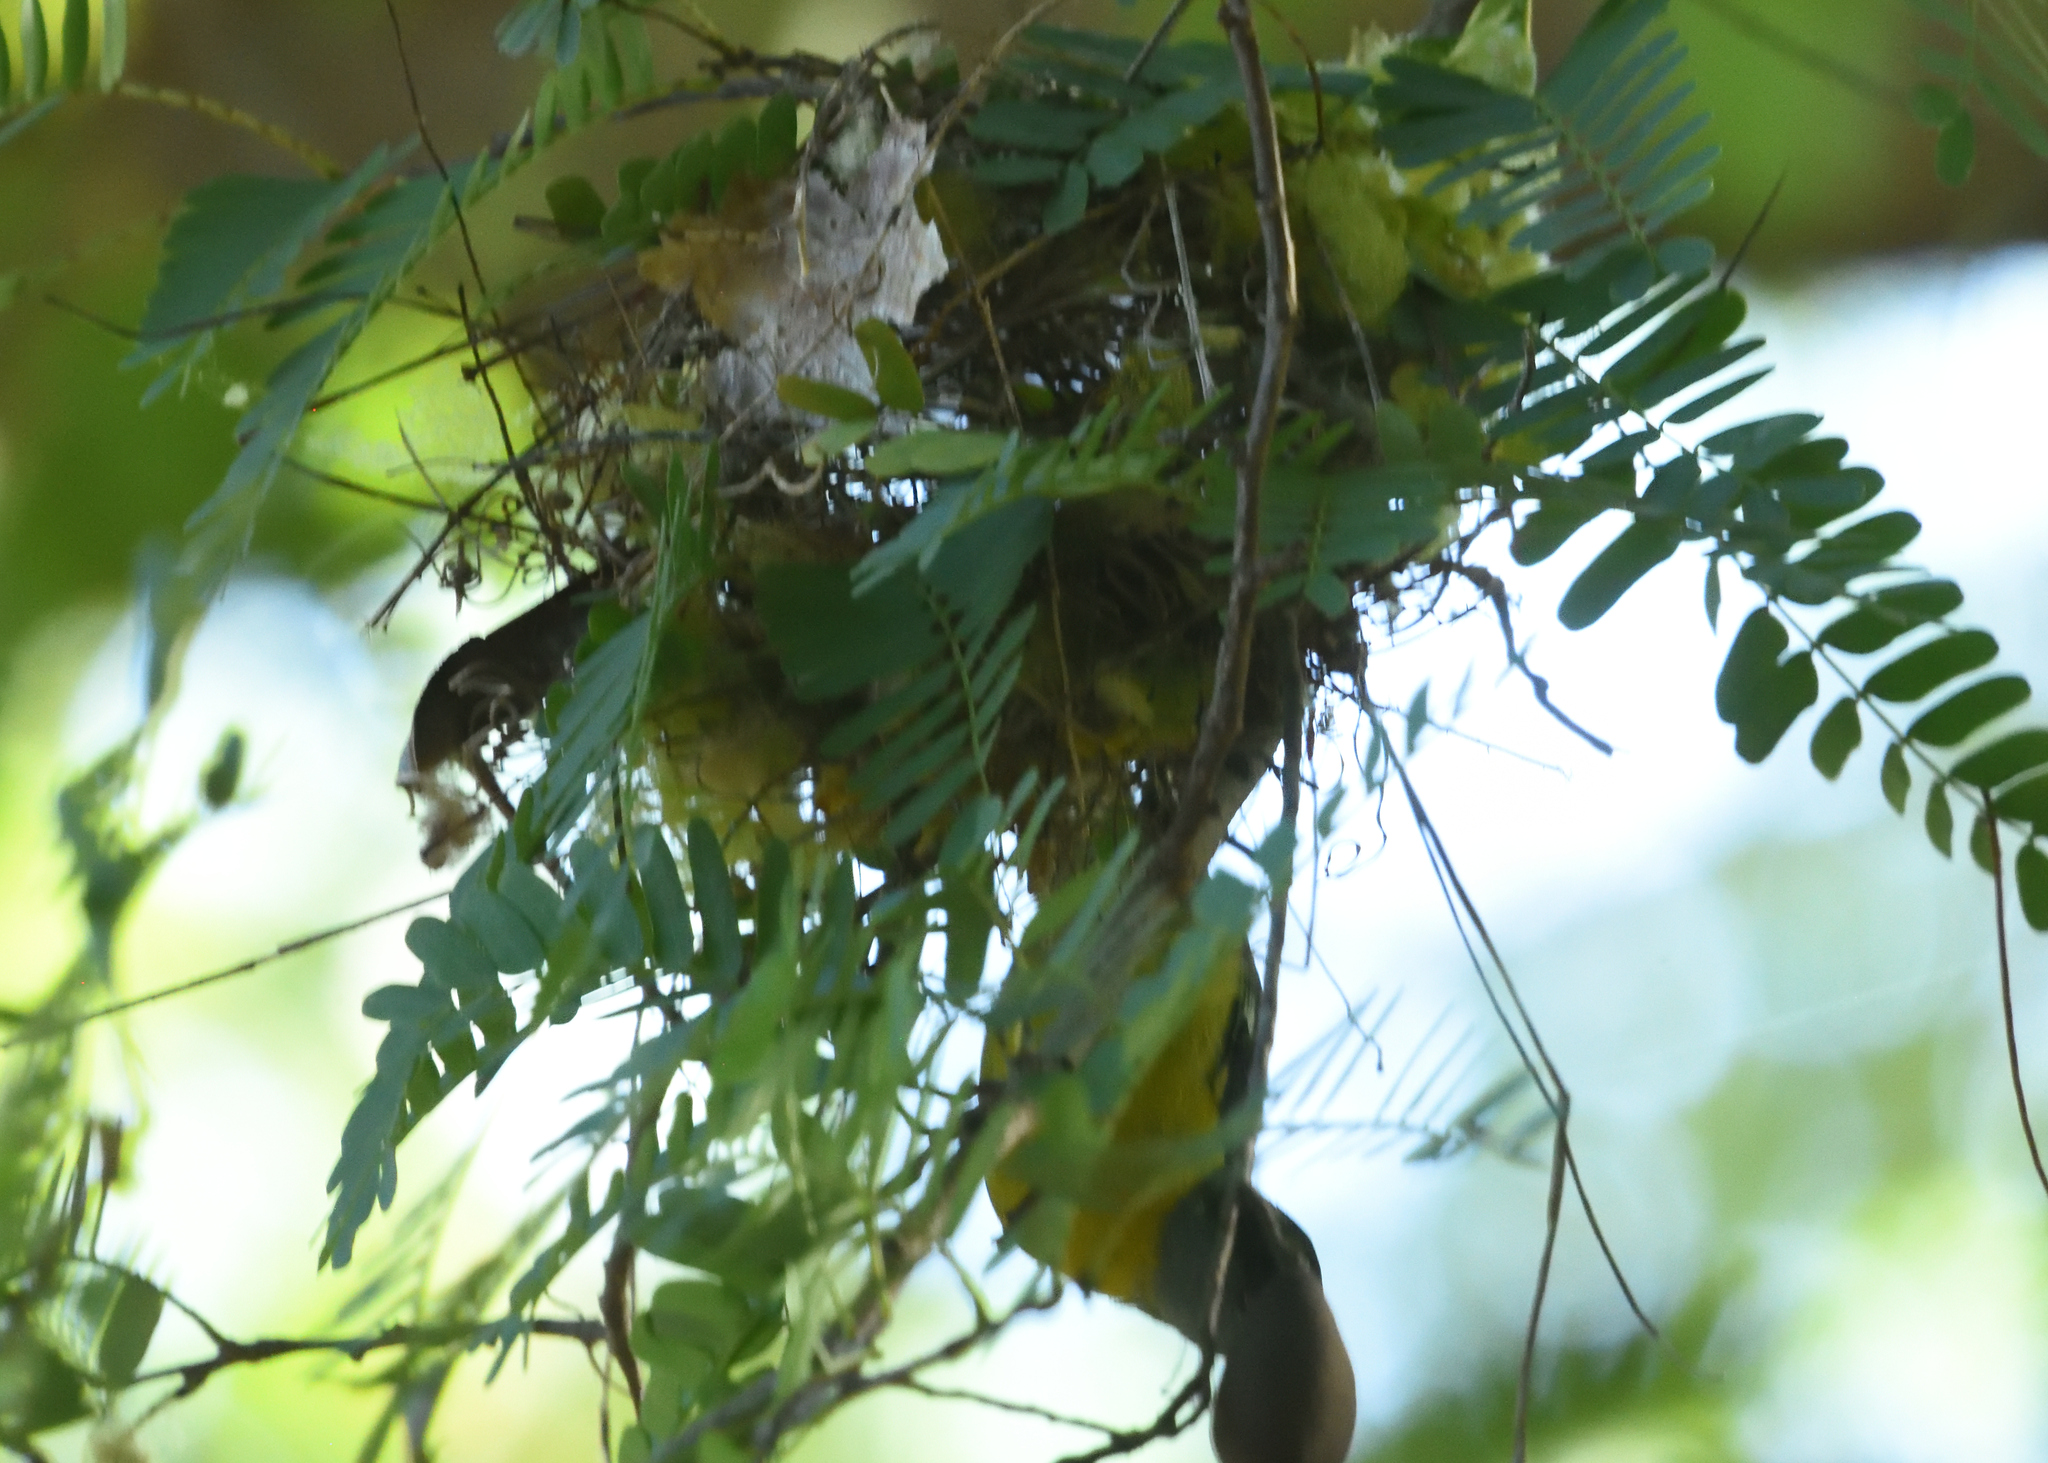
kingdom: Animalia
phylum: Chordata
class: Aves
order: Passeriformes
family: Thraupidae
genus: Coereba
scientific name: Coereba flaveola
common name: Bananaquit
